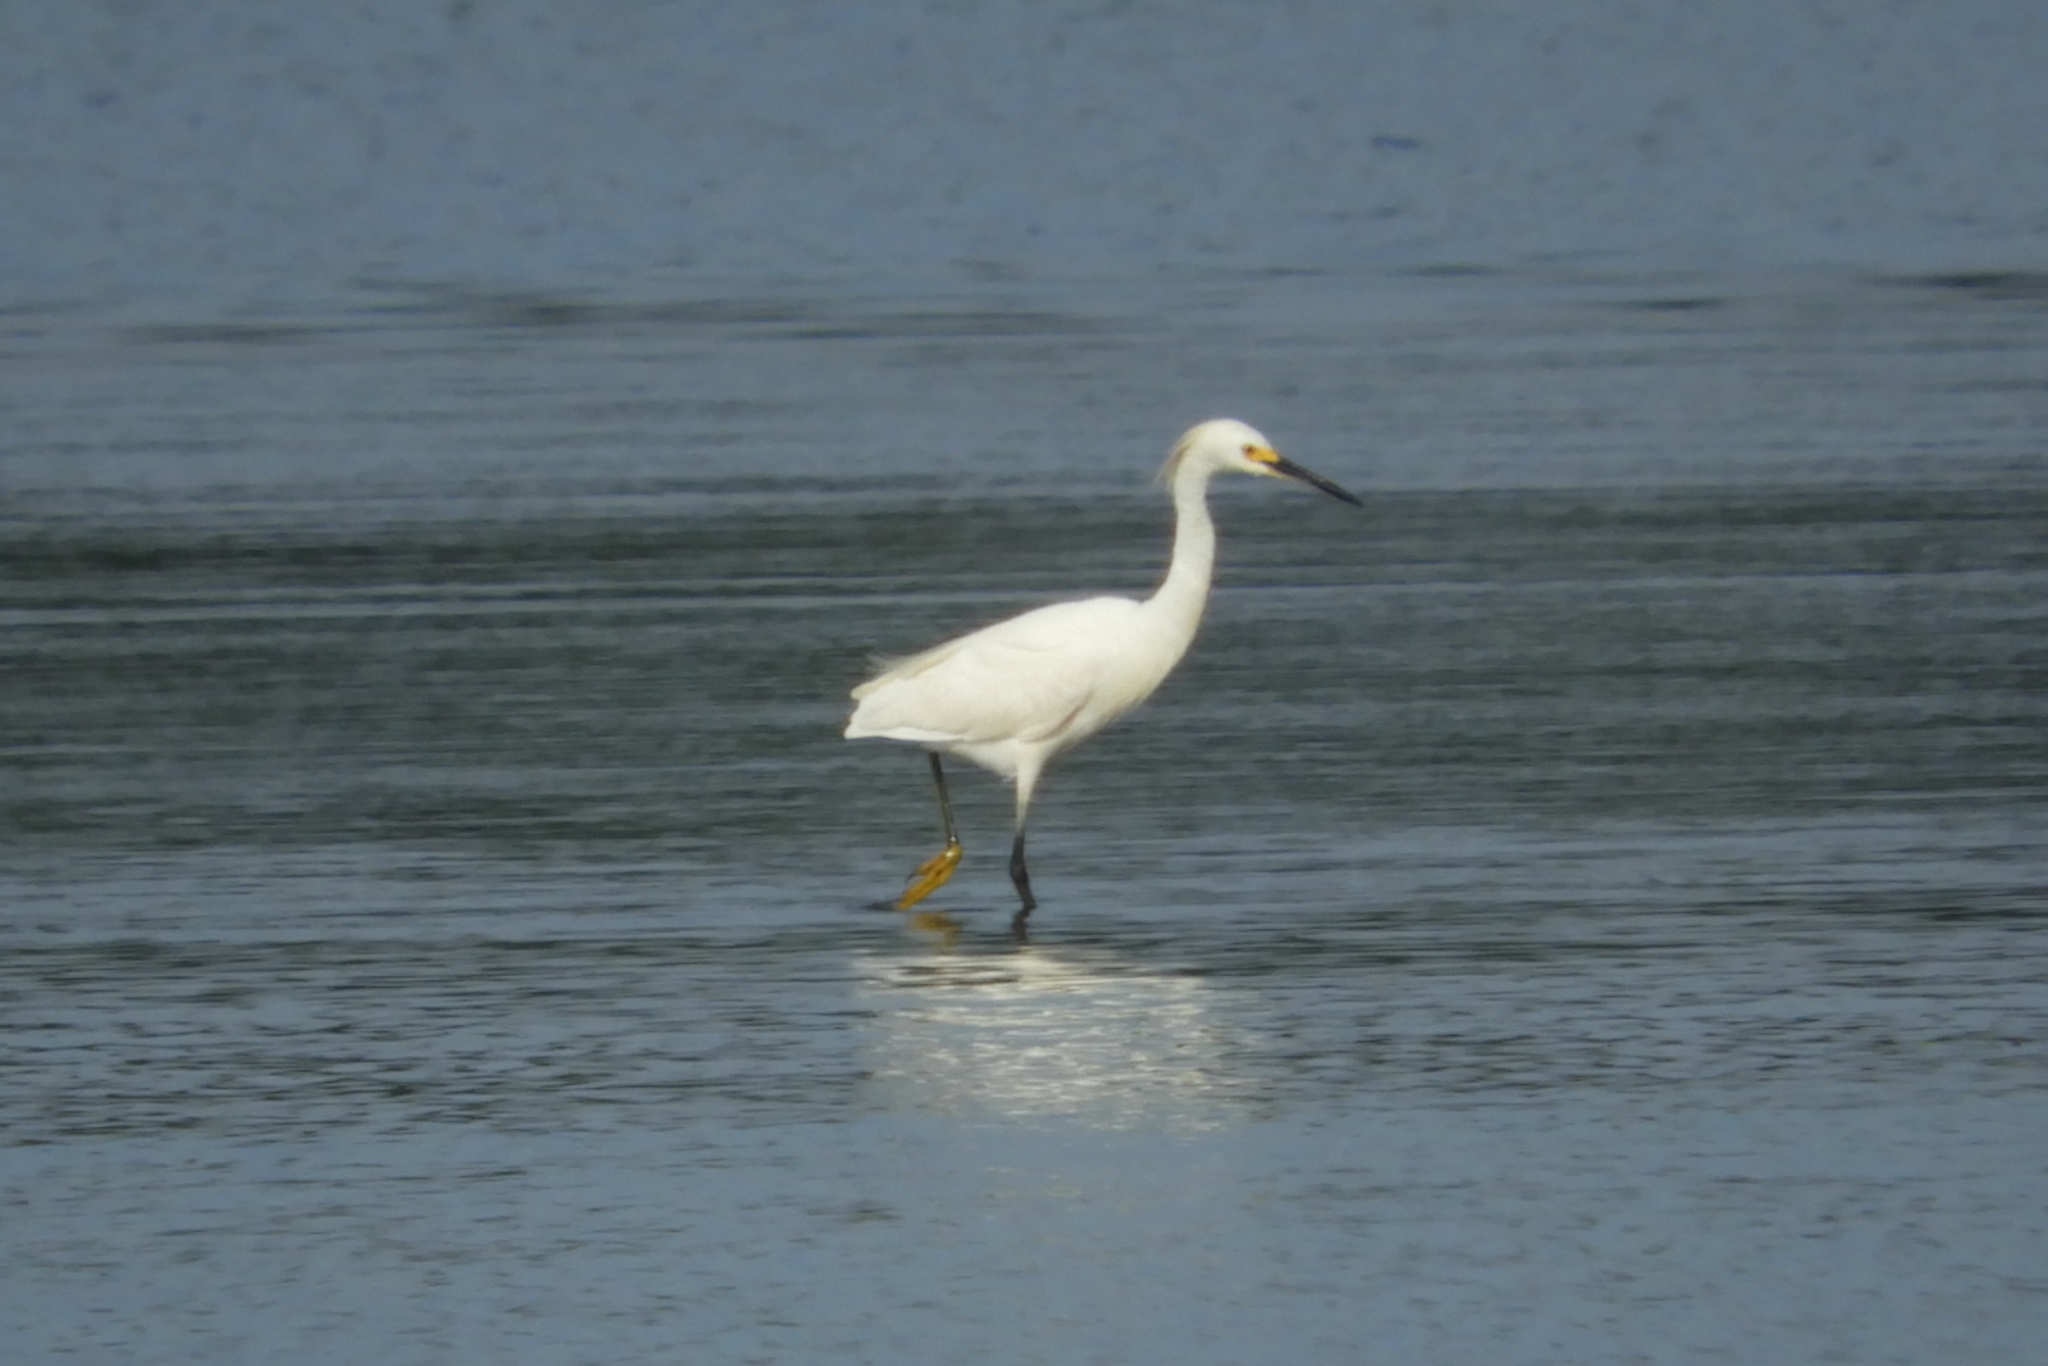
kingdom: Animalia
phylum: Chordata
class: Aves
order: Pelecaniformes
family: Ardeidae
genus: Egretta
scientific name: Egretta thula
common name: Snowy egret
